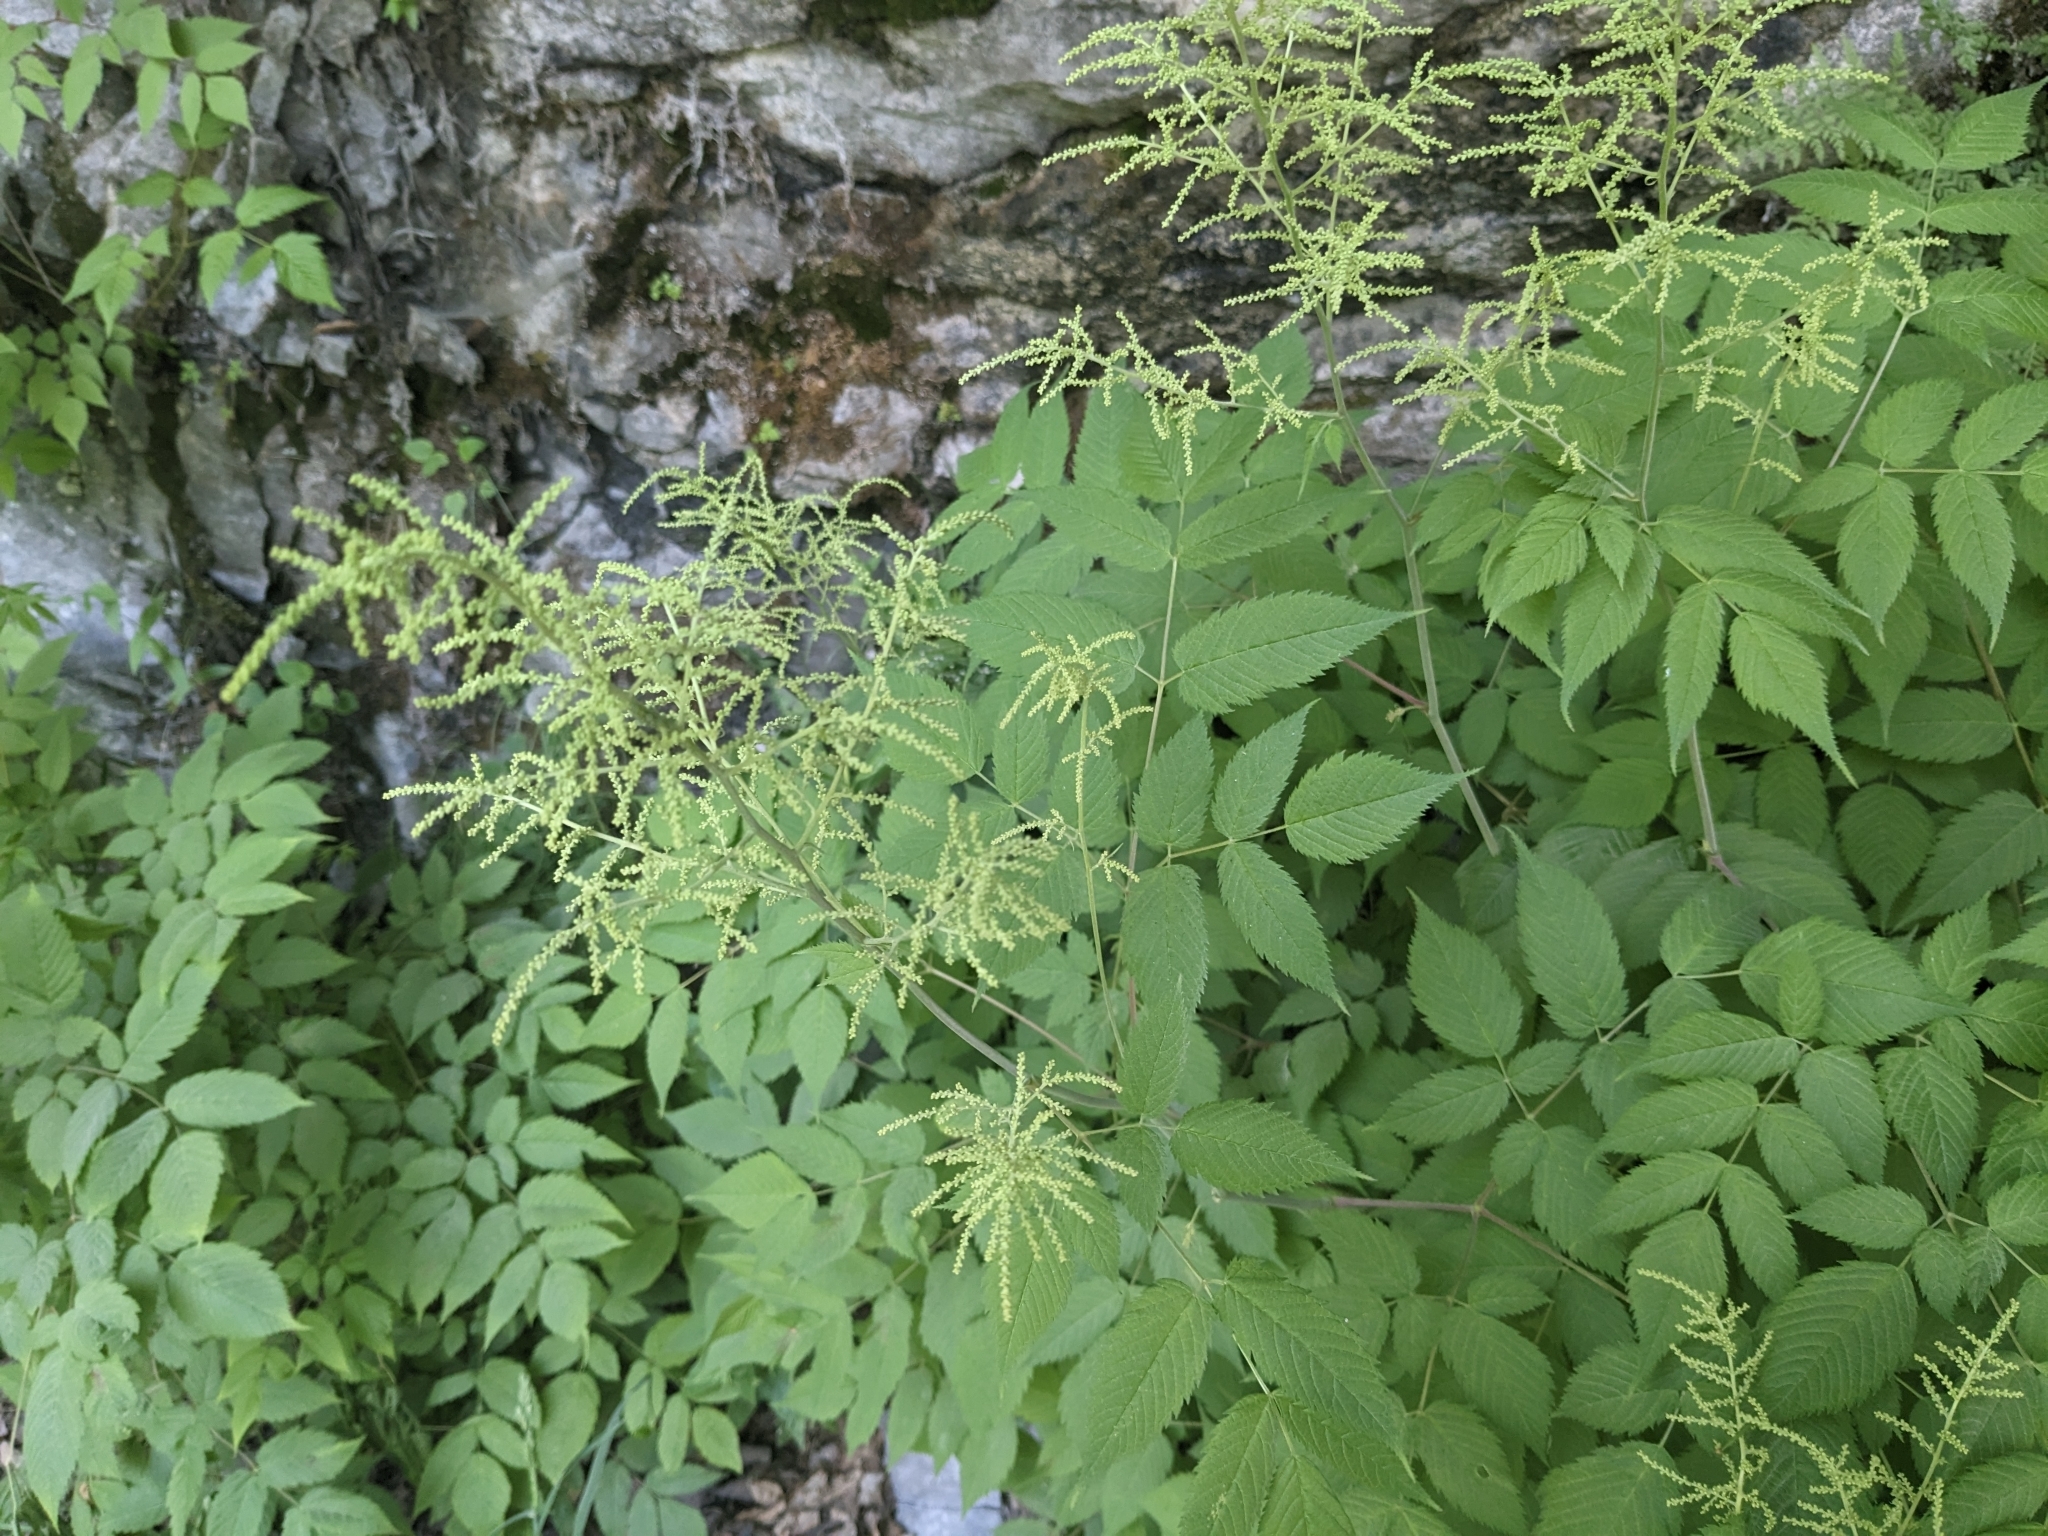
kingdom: Plantae
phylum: Tracheophyta
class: Magnoliopsida
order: Rosales
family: Rosaceae
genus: Aruncus
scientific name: Aruncus dioicus
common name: Buck's-beard
